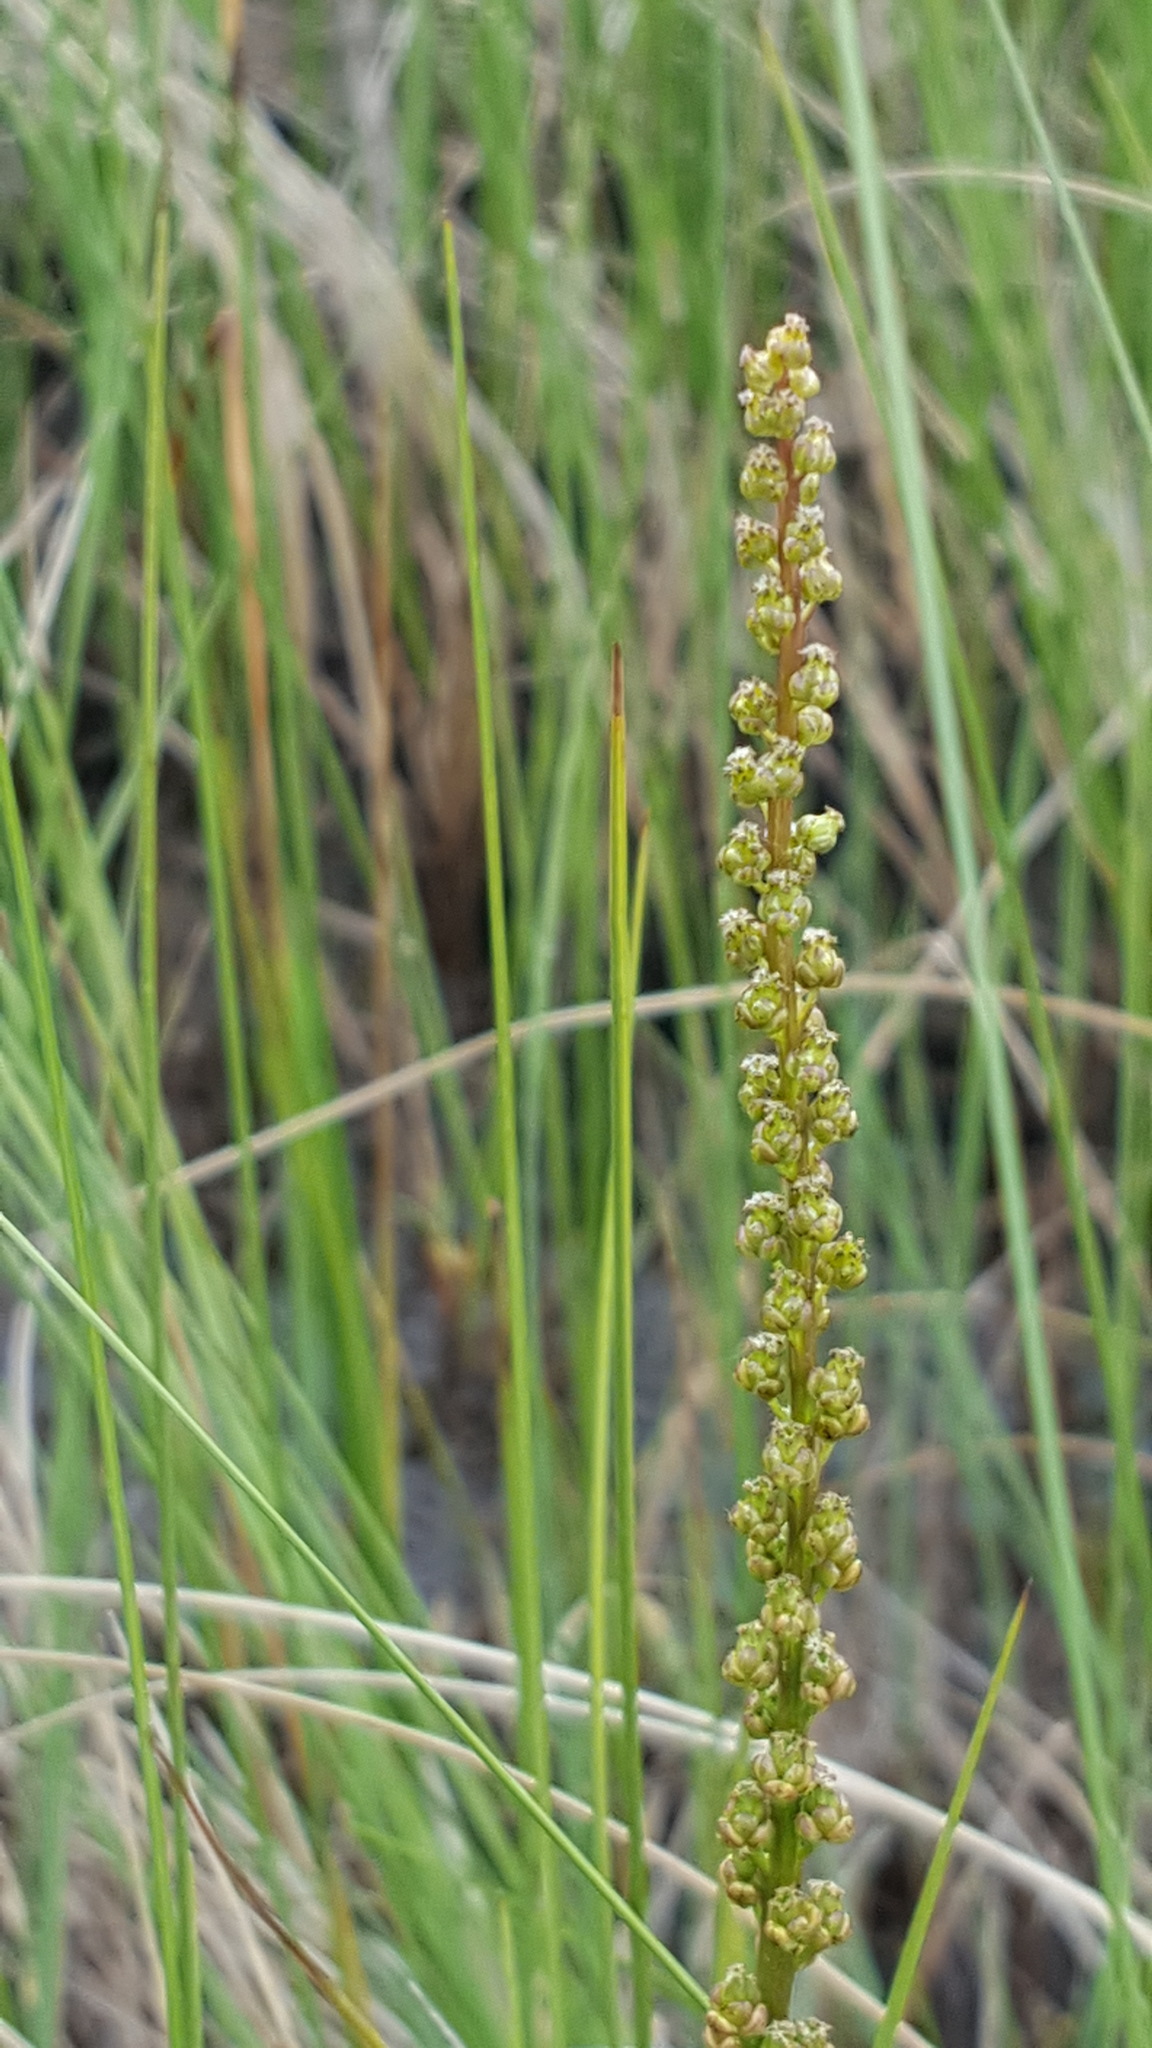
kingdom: Plantae
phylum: Tracheophyta
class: Liliopsida
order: Alismatales
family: Juncaginaceae
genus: Triglochin
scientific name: Triglochin maritima
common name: Sea arrowgrass
